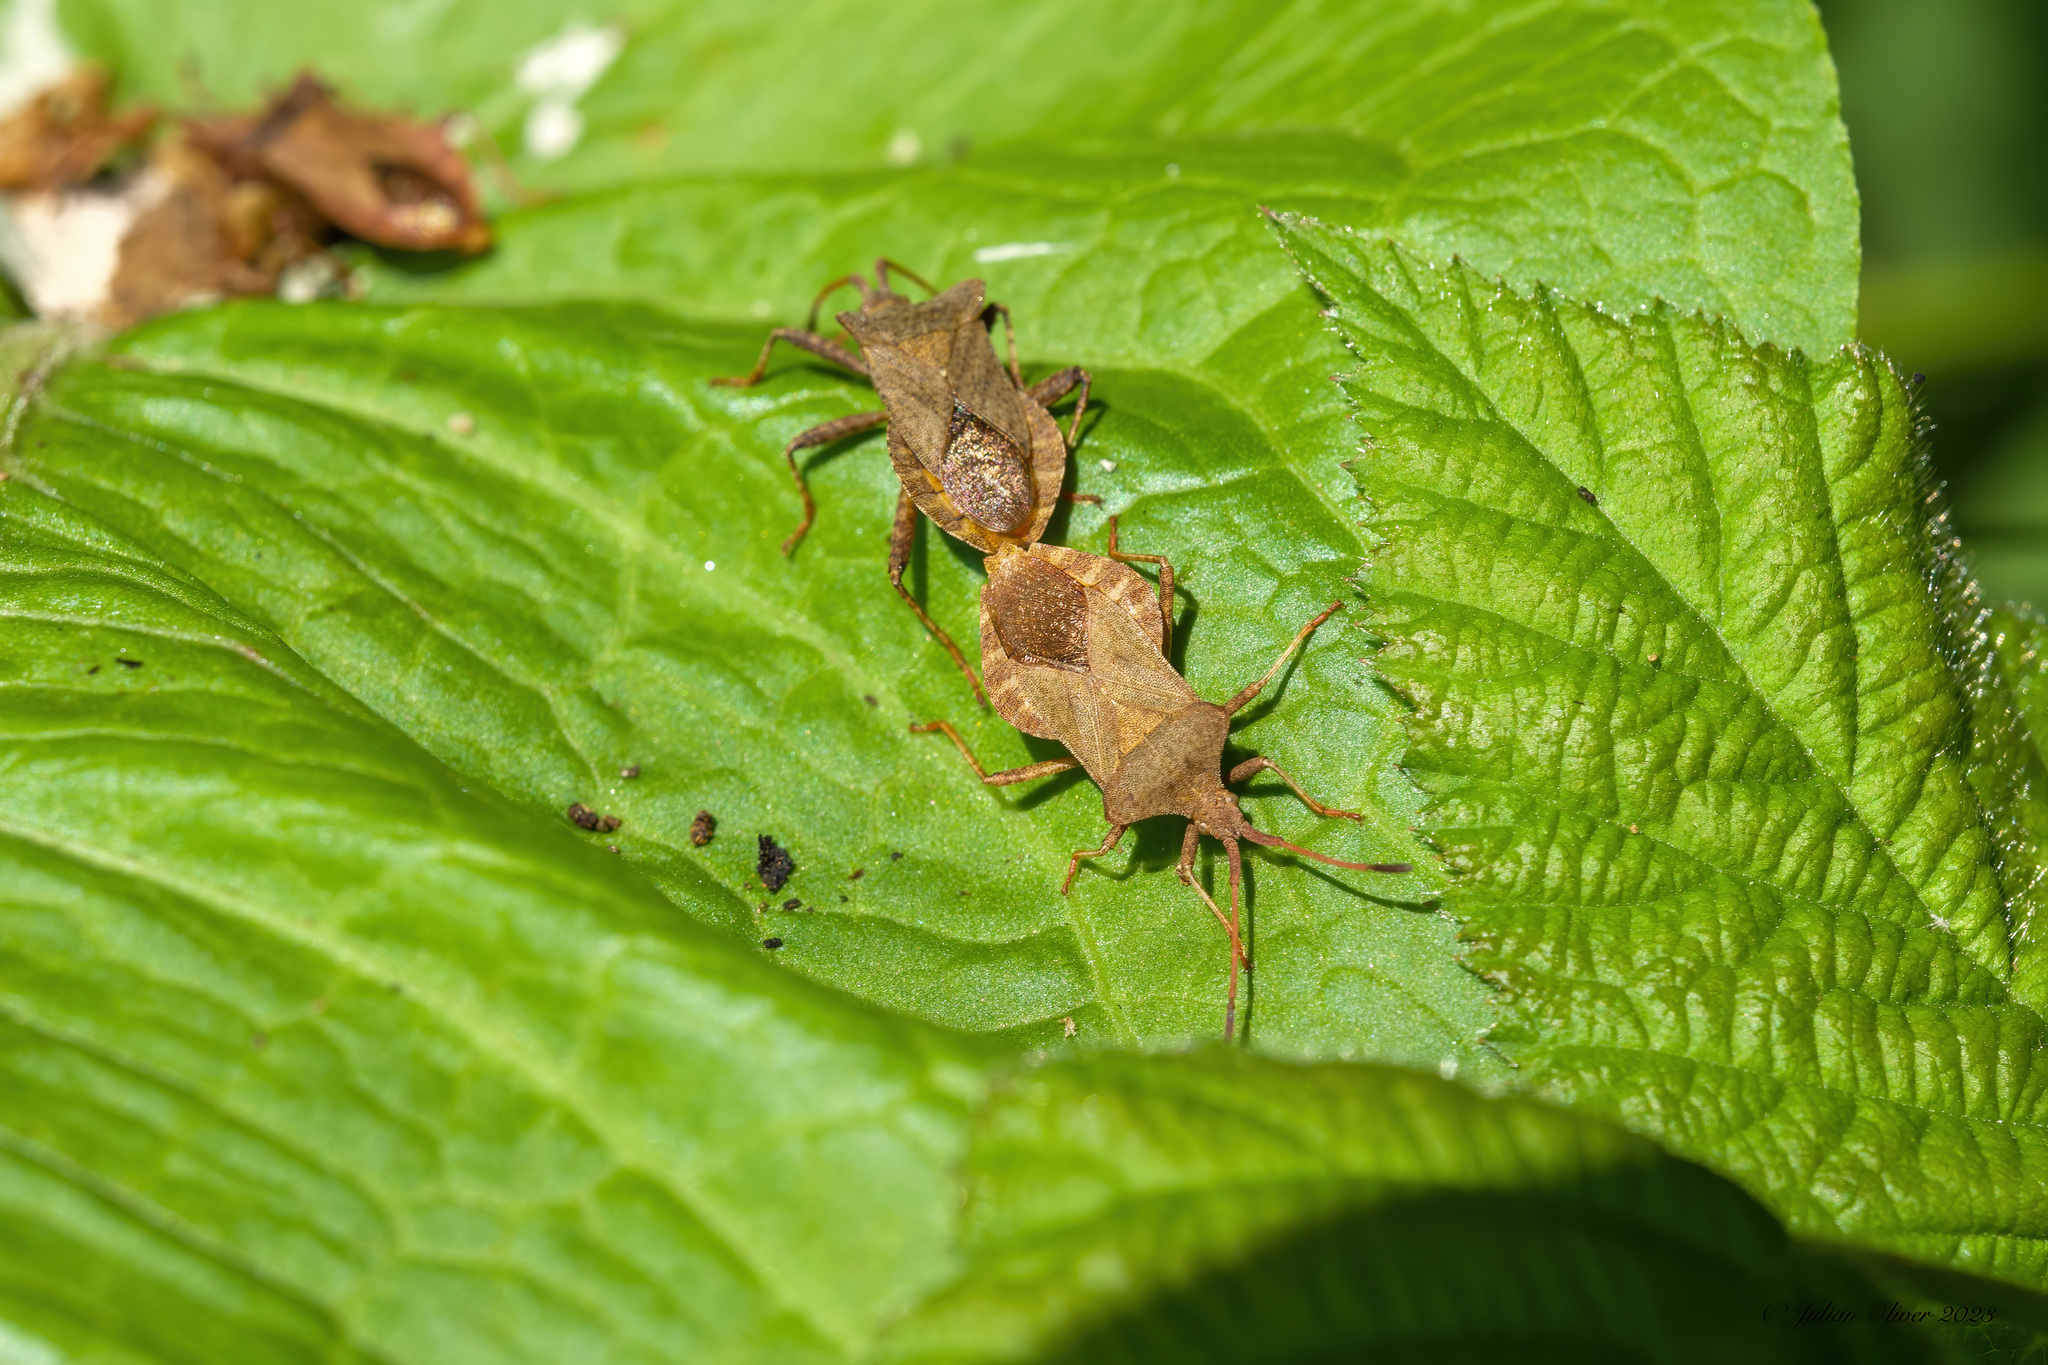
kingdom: Animalia
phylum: Arthropoda
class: Insecta
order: Hemiptera
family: Coreidae
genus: Coreus
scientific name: Coreus marginatus
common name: Dock bug
